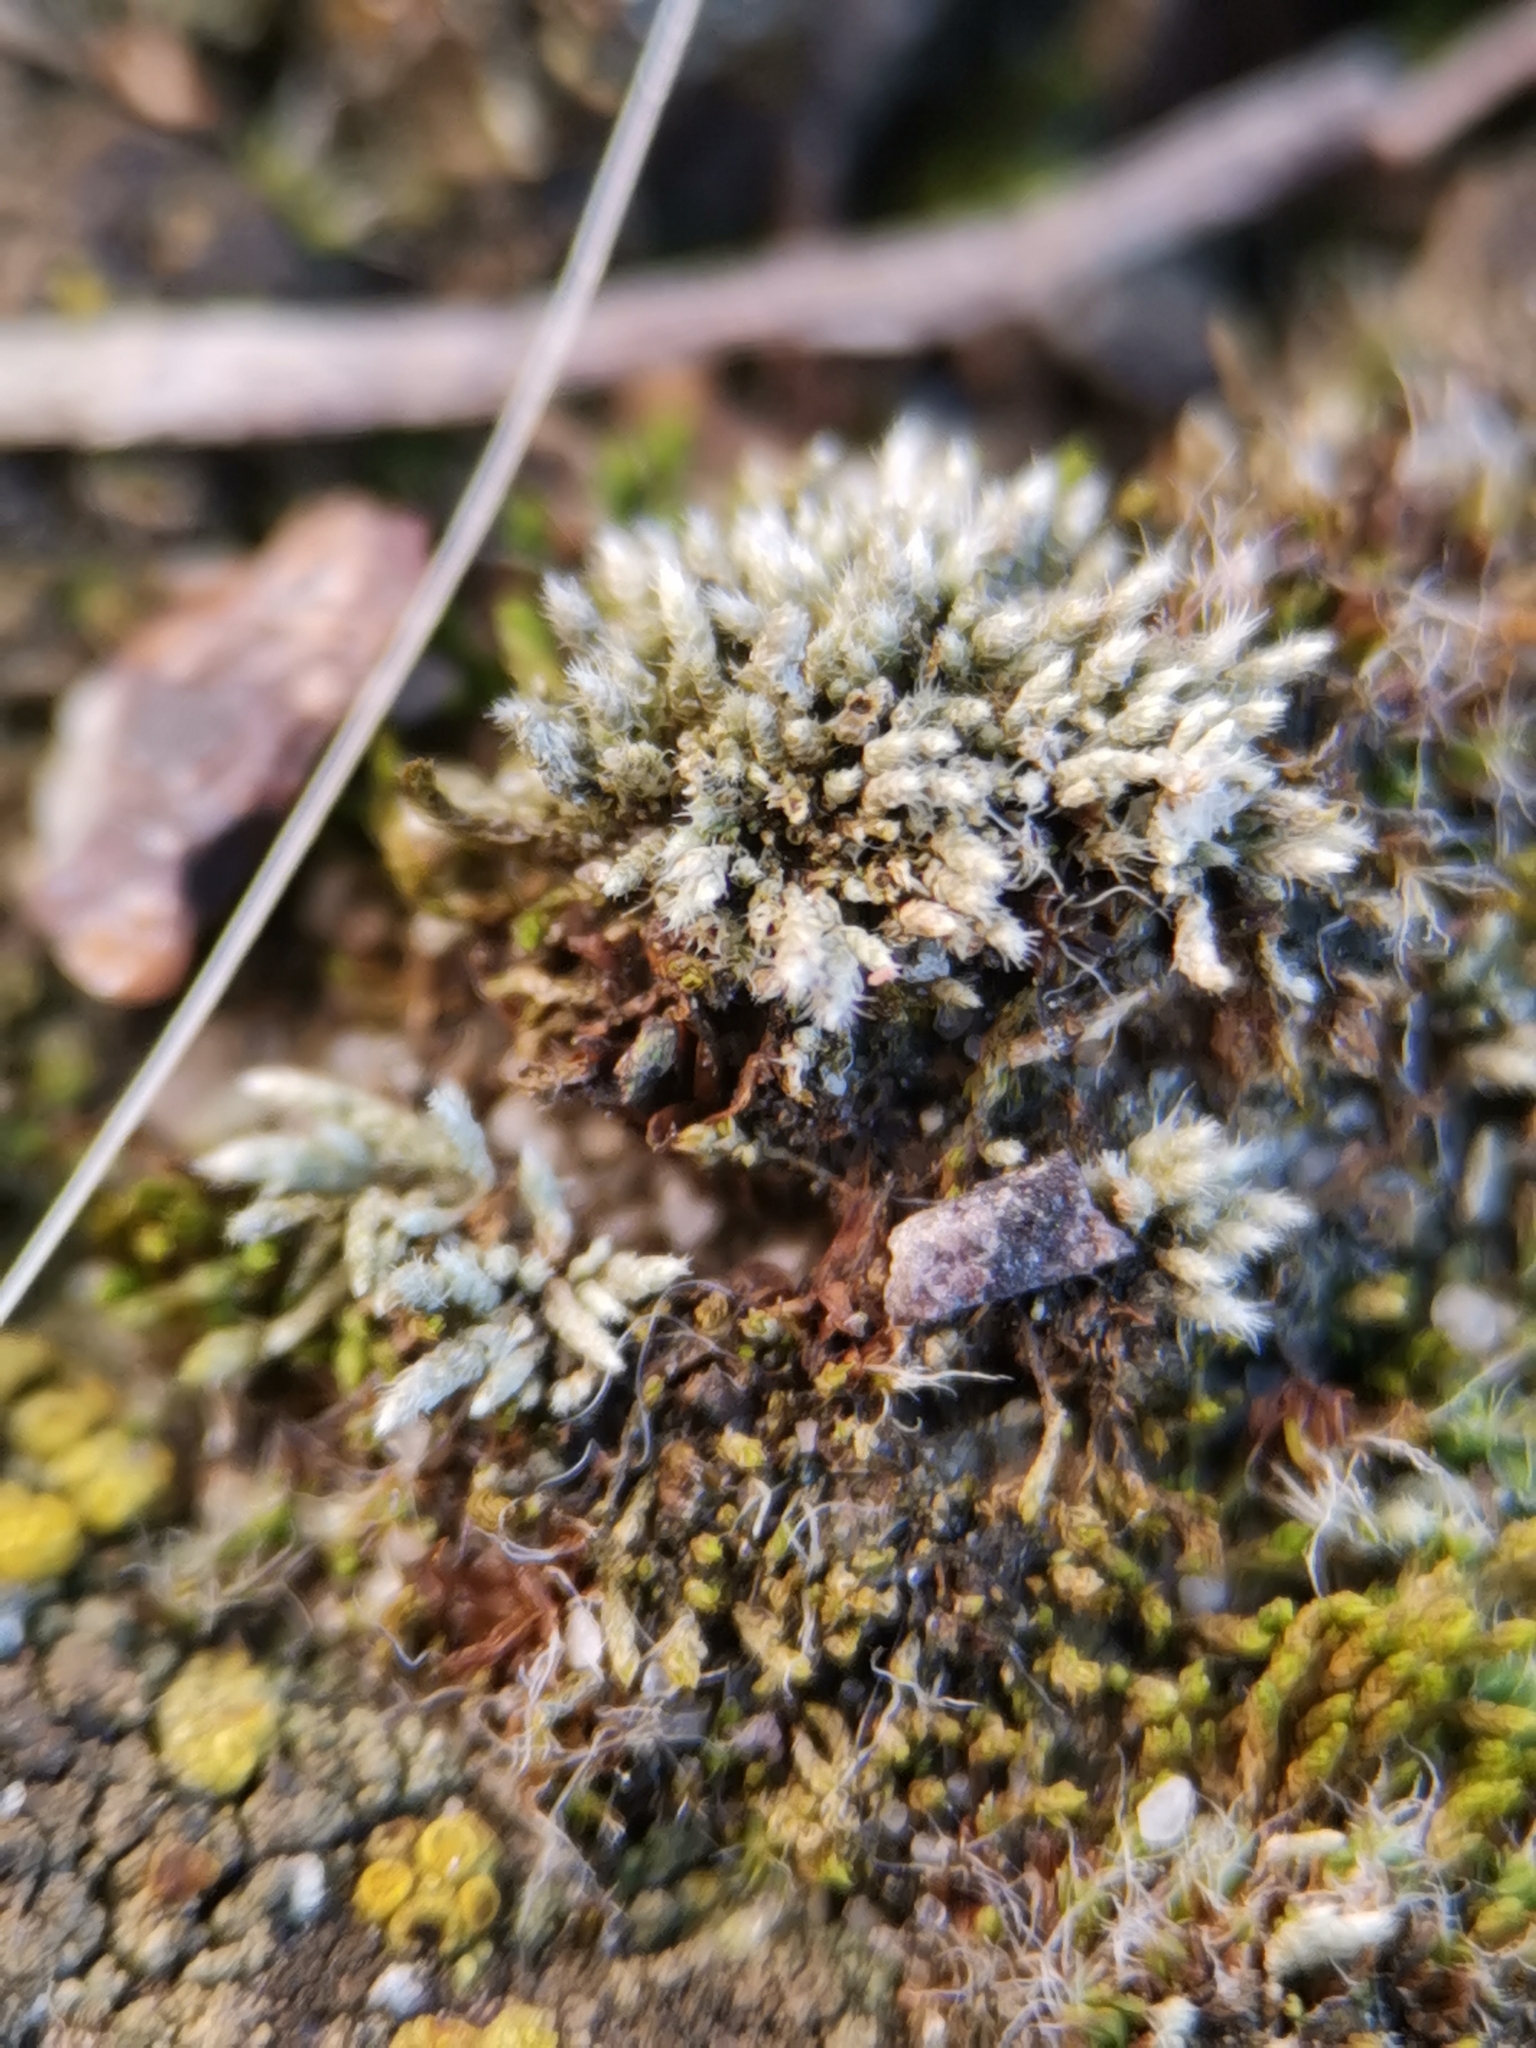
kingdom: Plantae
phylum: Bryophyta
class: Bryopsida
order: Bryales
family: Bryaceae
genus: Bryum
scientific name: Bryum argenteum
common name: Silver-moss
